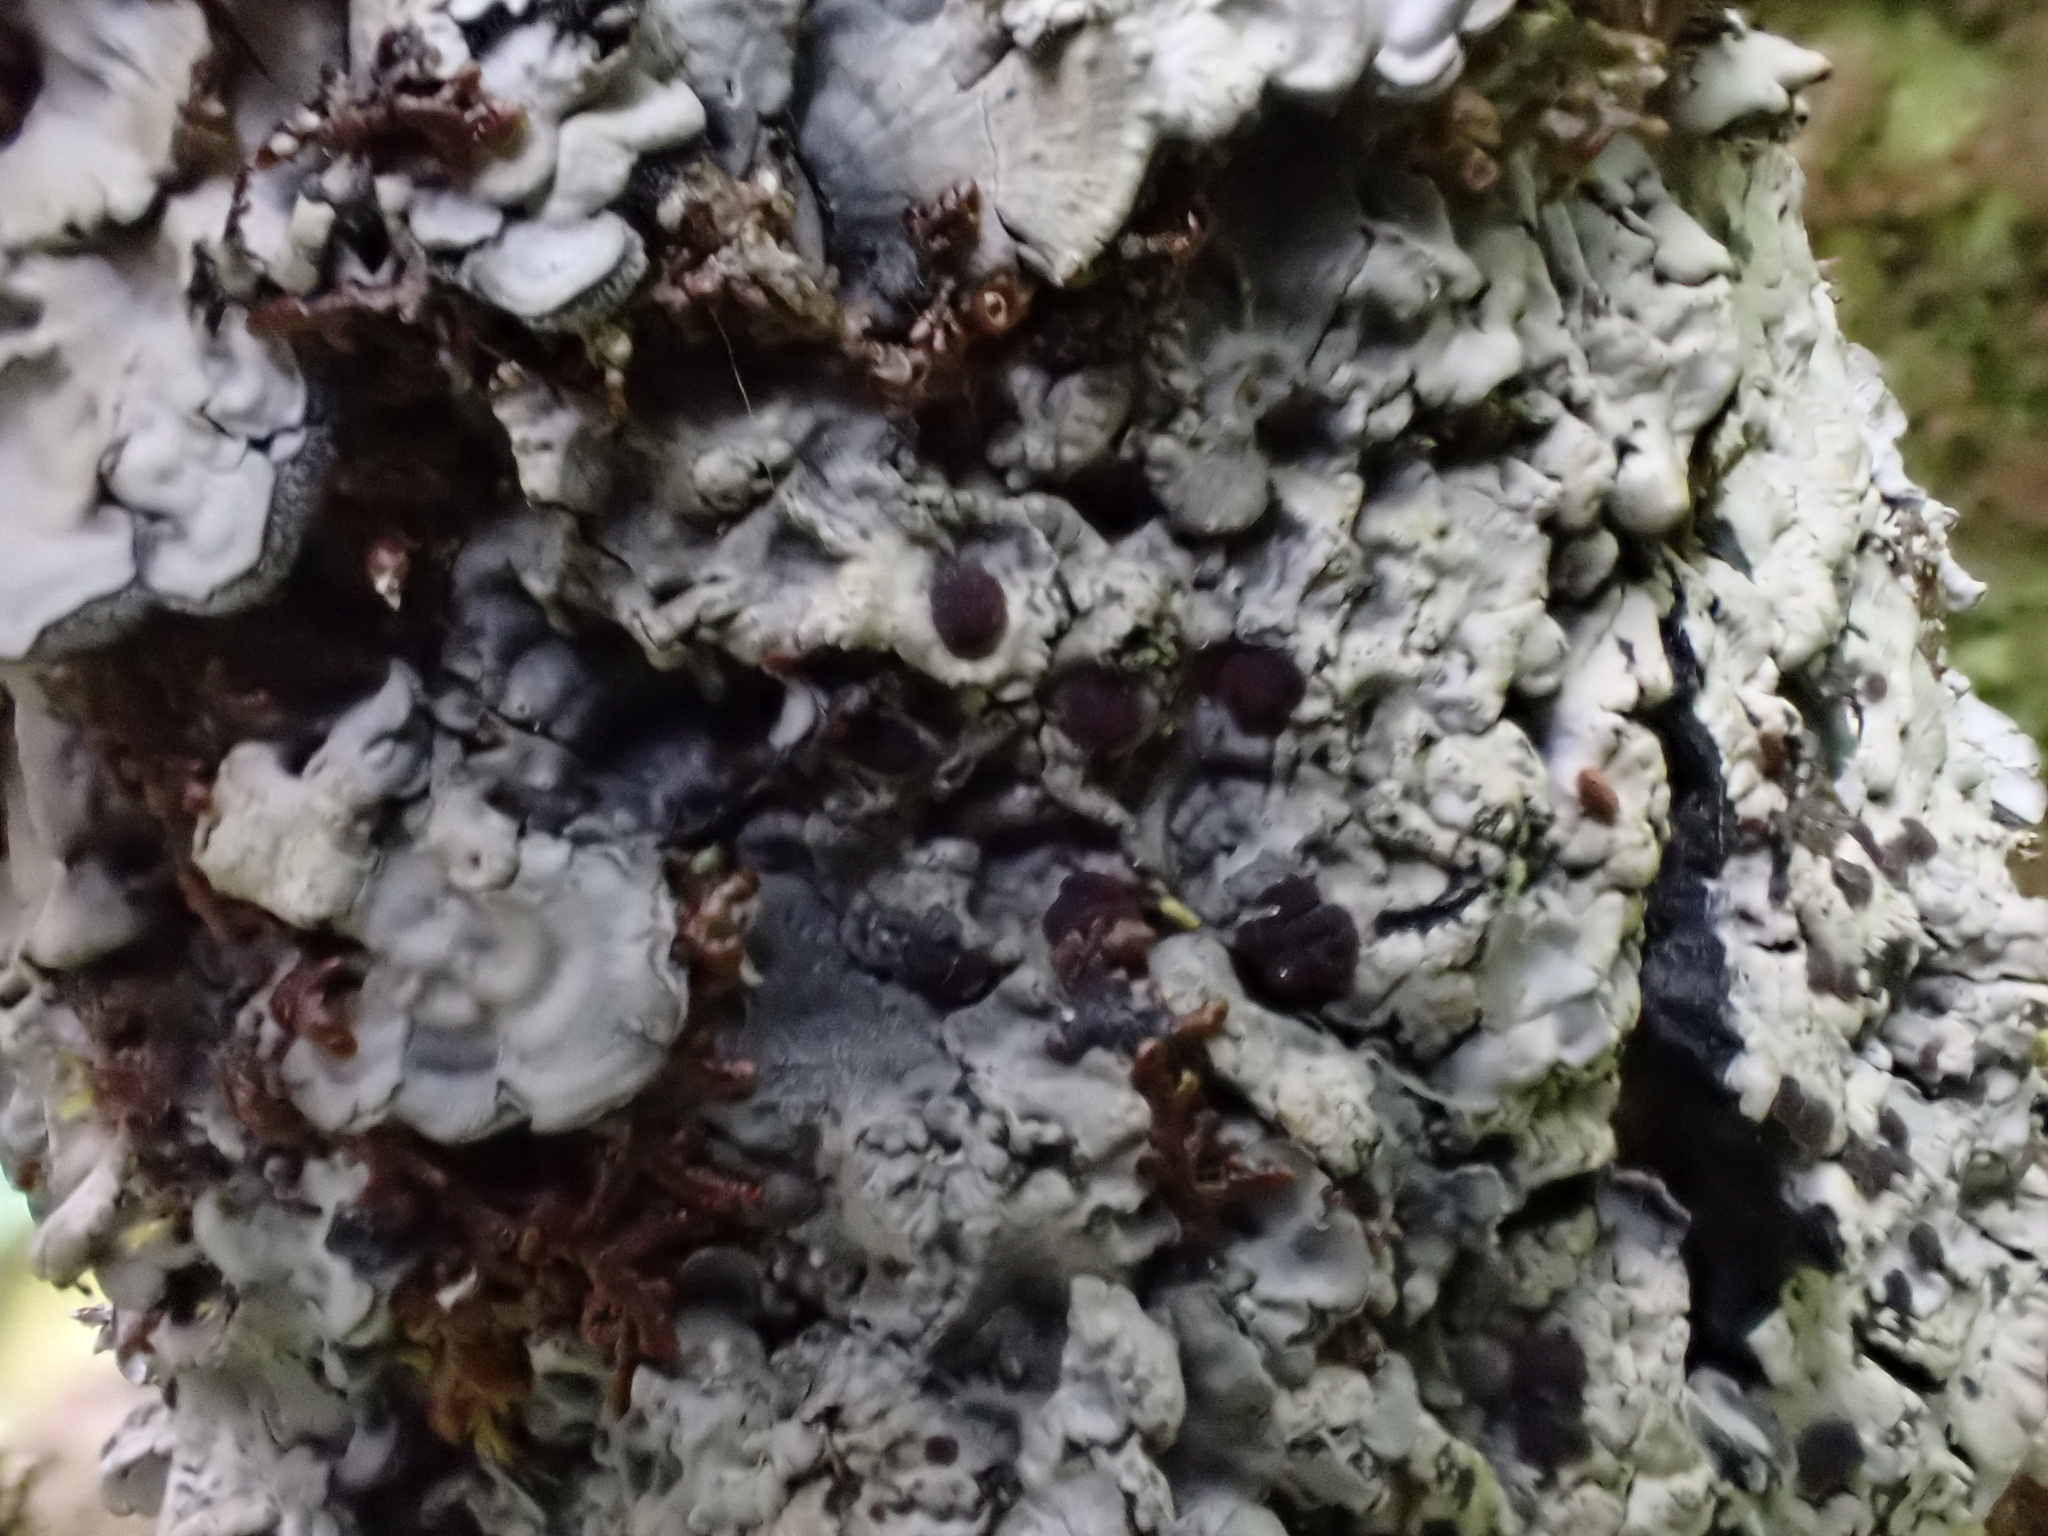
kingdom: Fungi
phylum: Ascomycota
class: Lecanoromycetes
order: Peltigerales
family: Pannariaceae
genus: Pectenia
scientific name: Pectenia cyanoloma
